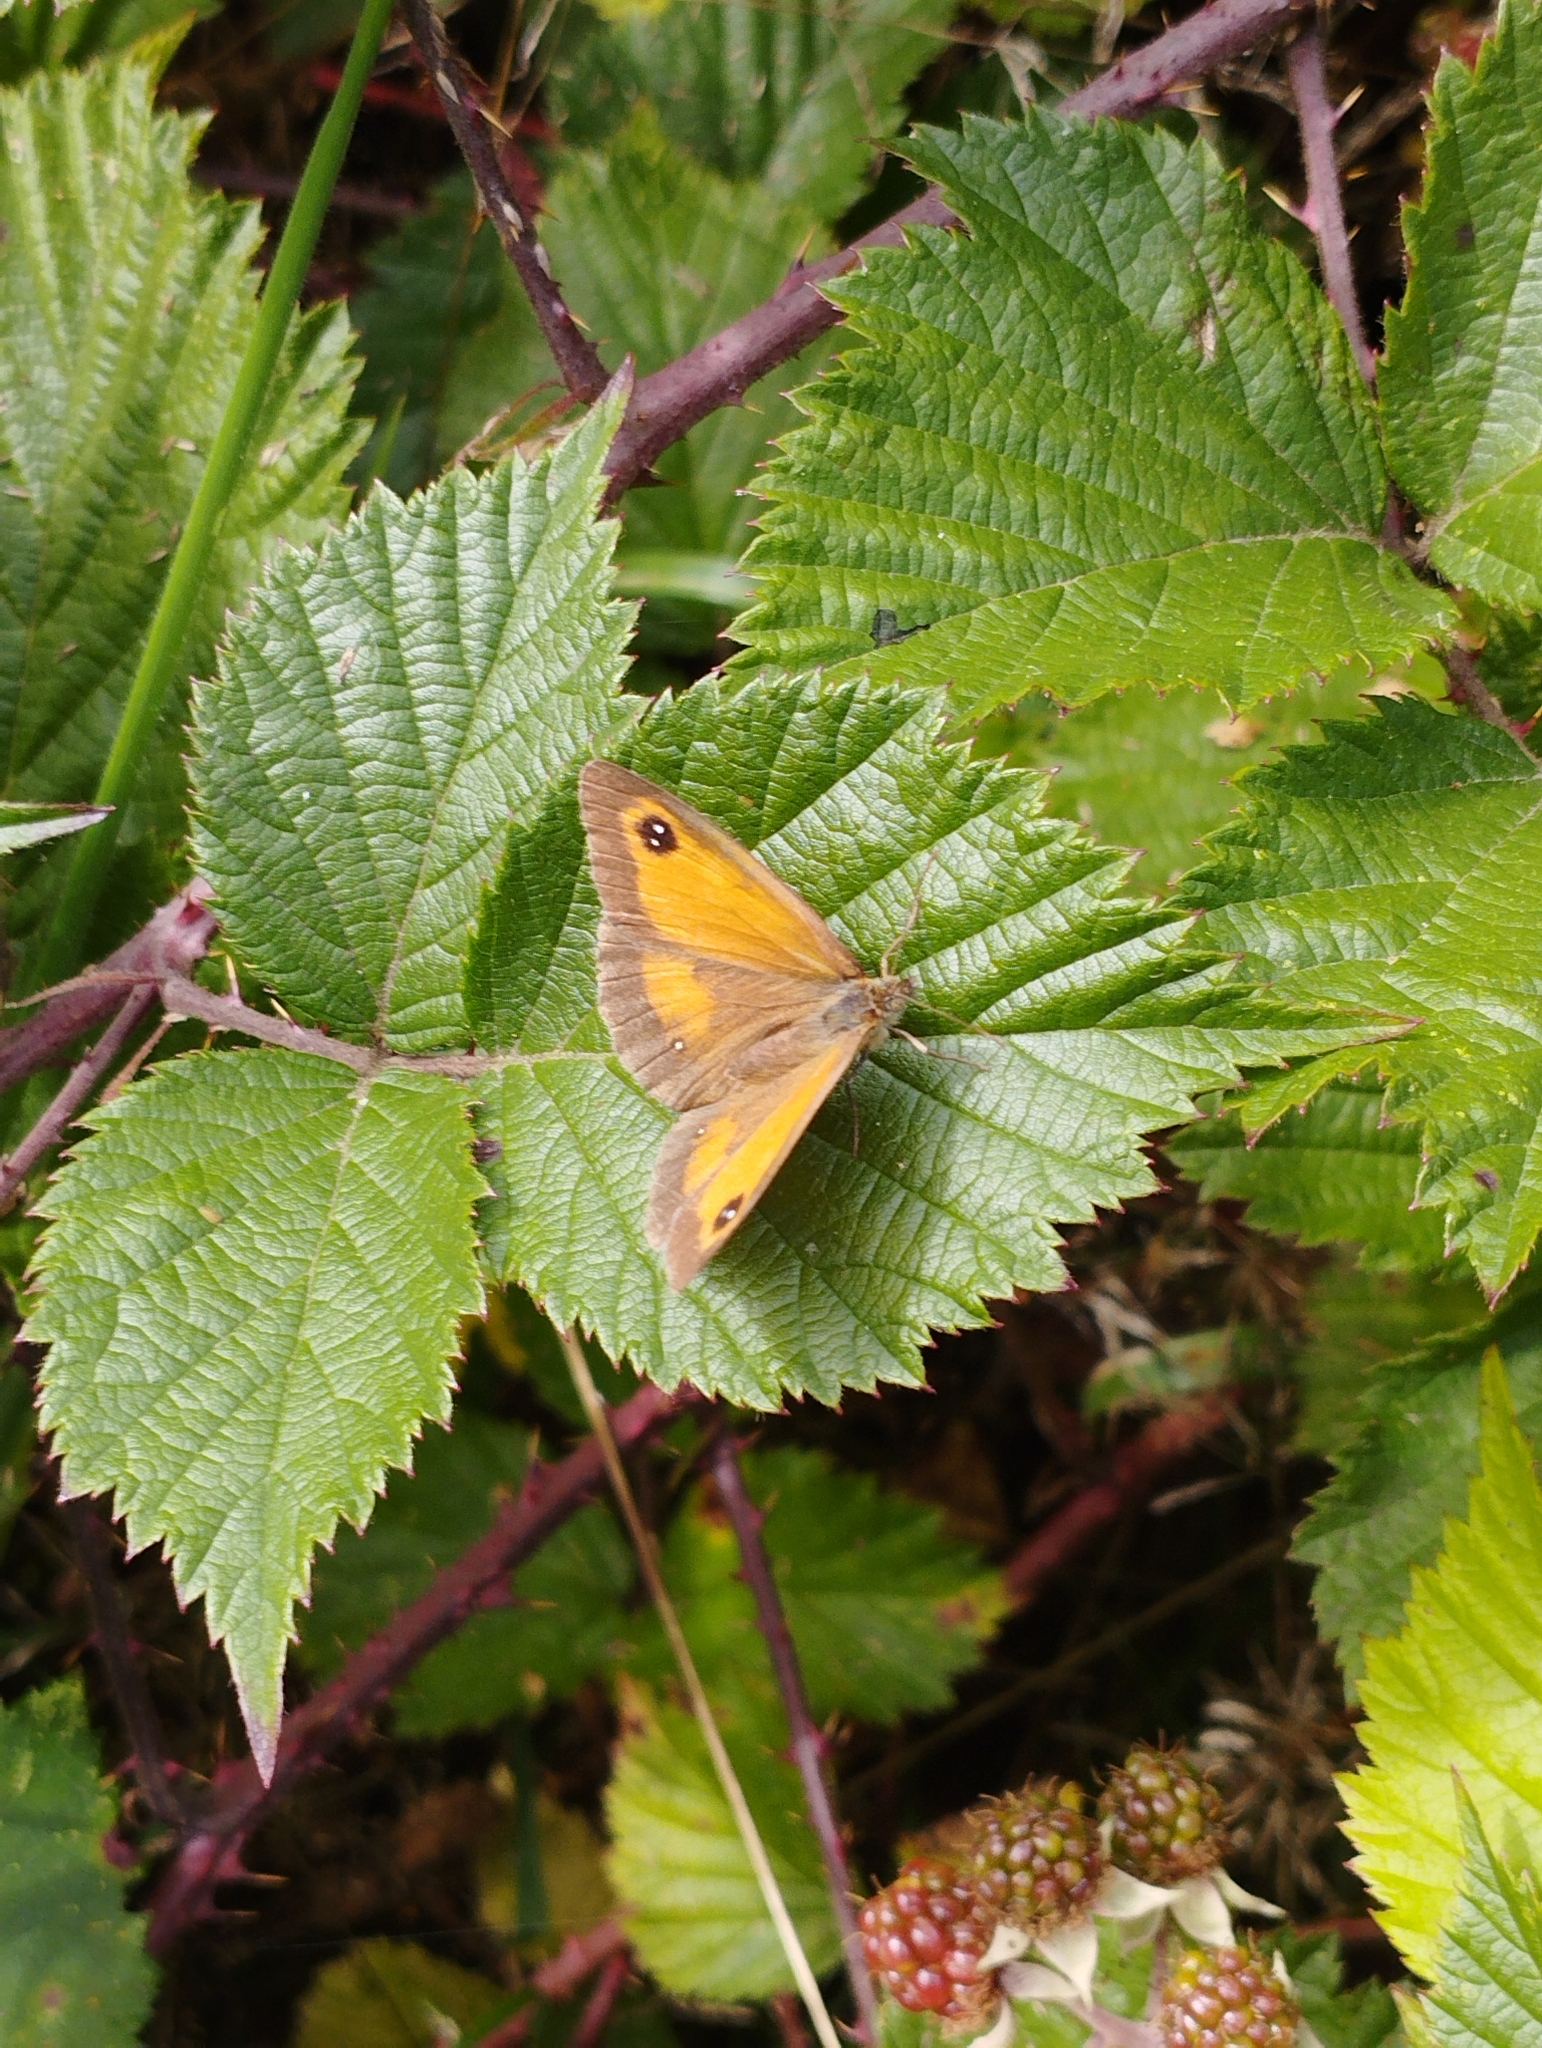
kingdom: Animalia
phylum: Arthropoda
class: Insecta
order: Lepidoptera
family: Nymphalidae
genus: Pyronia
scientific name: Pyronia tithonus
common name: Gatekeeper
